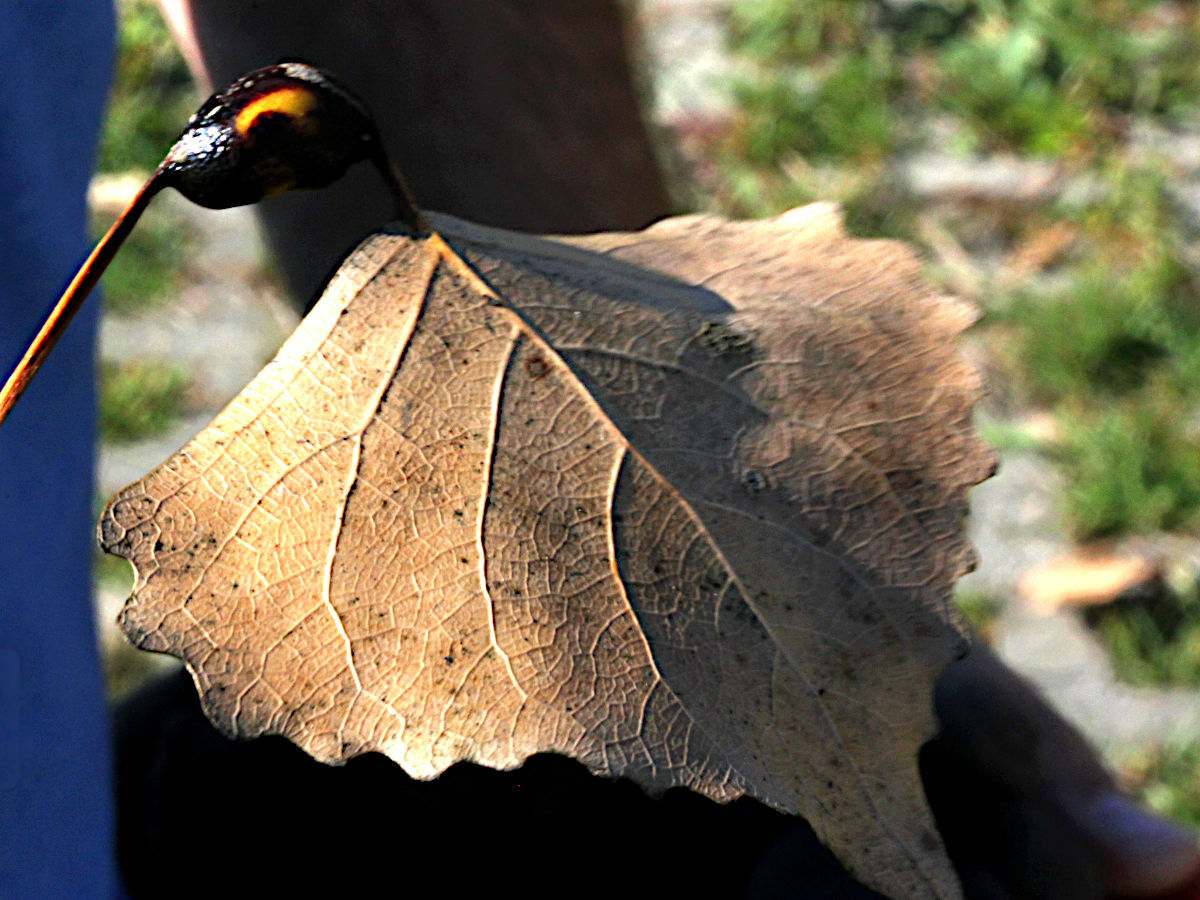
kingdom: Animalia
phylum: Arthropoda
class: Insecta
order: Hemiptera
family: Aphididae
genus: Pemphigus
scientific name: Pemphigus populitransversus
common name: Poplar petiolegall aphid
